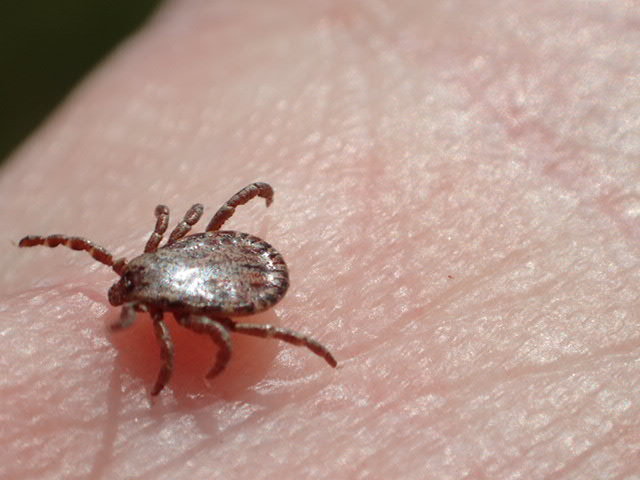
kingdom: Animalia
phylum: Arthropoda
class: Arachnida
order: Ixodida
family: Ixodidae
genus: Dermacentor
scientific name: Dermacentor occidentalis
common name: Net tick
